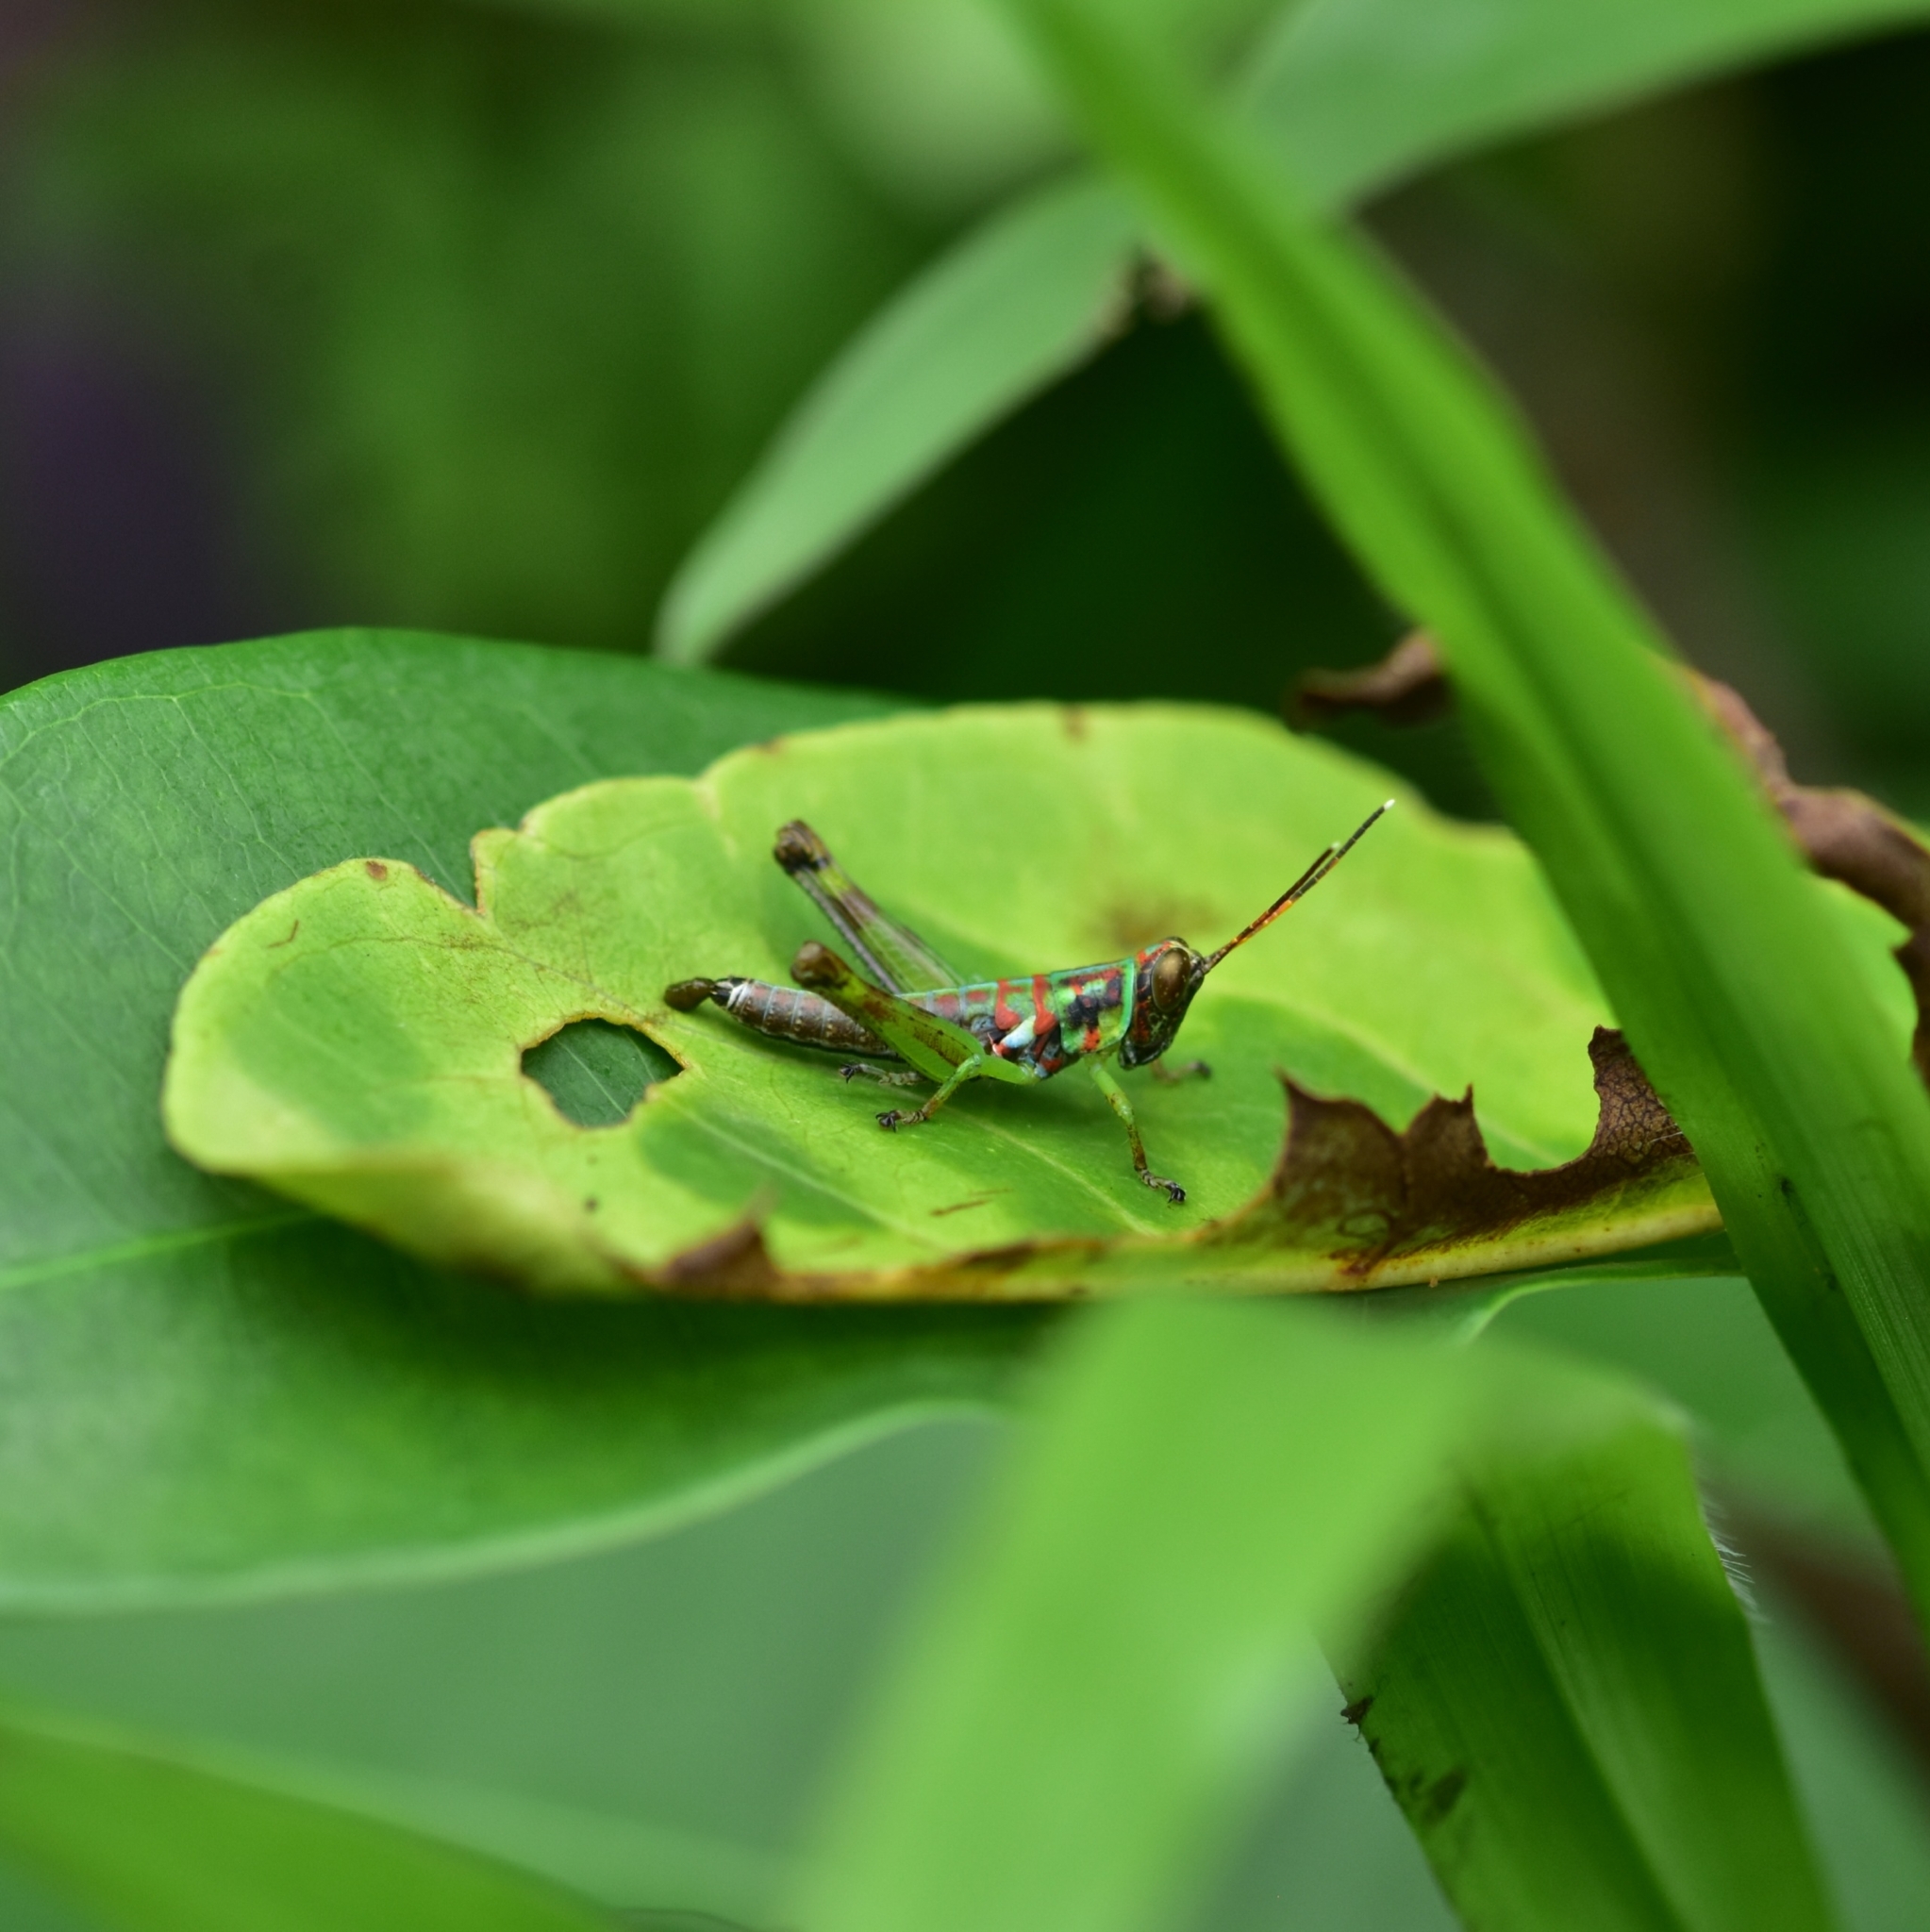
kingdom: Animalia
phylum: Arthropoda
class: Insecta
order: Orthoptera
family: Acrididae
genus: Pirithoicus
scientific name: Pirithoicus ophthalmicus
